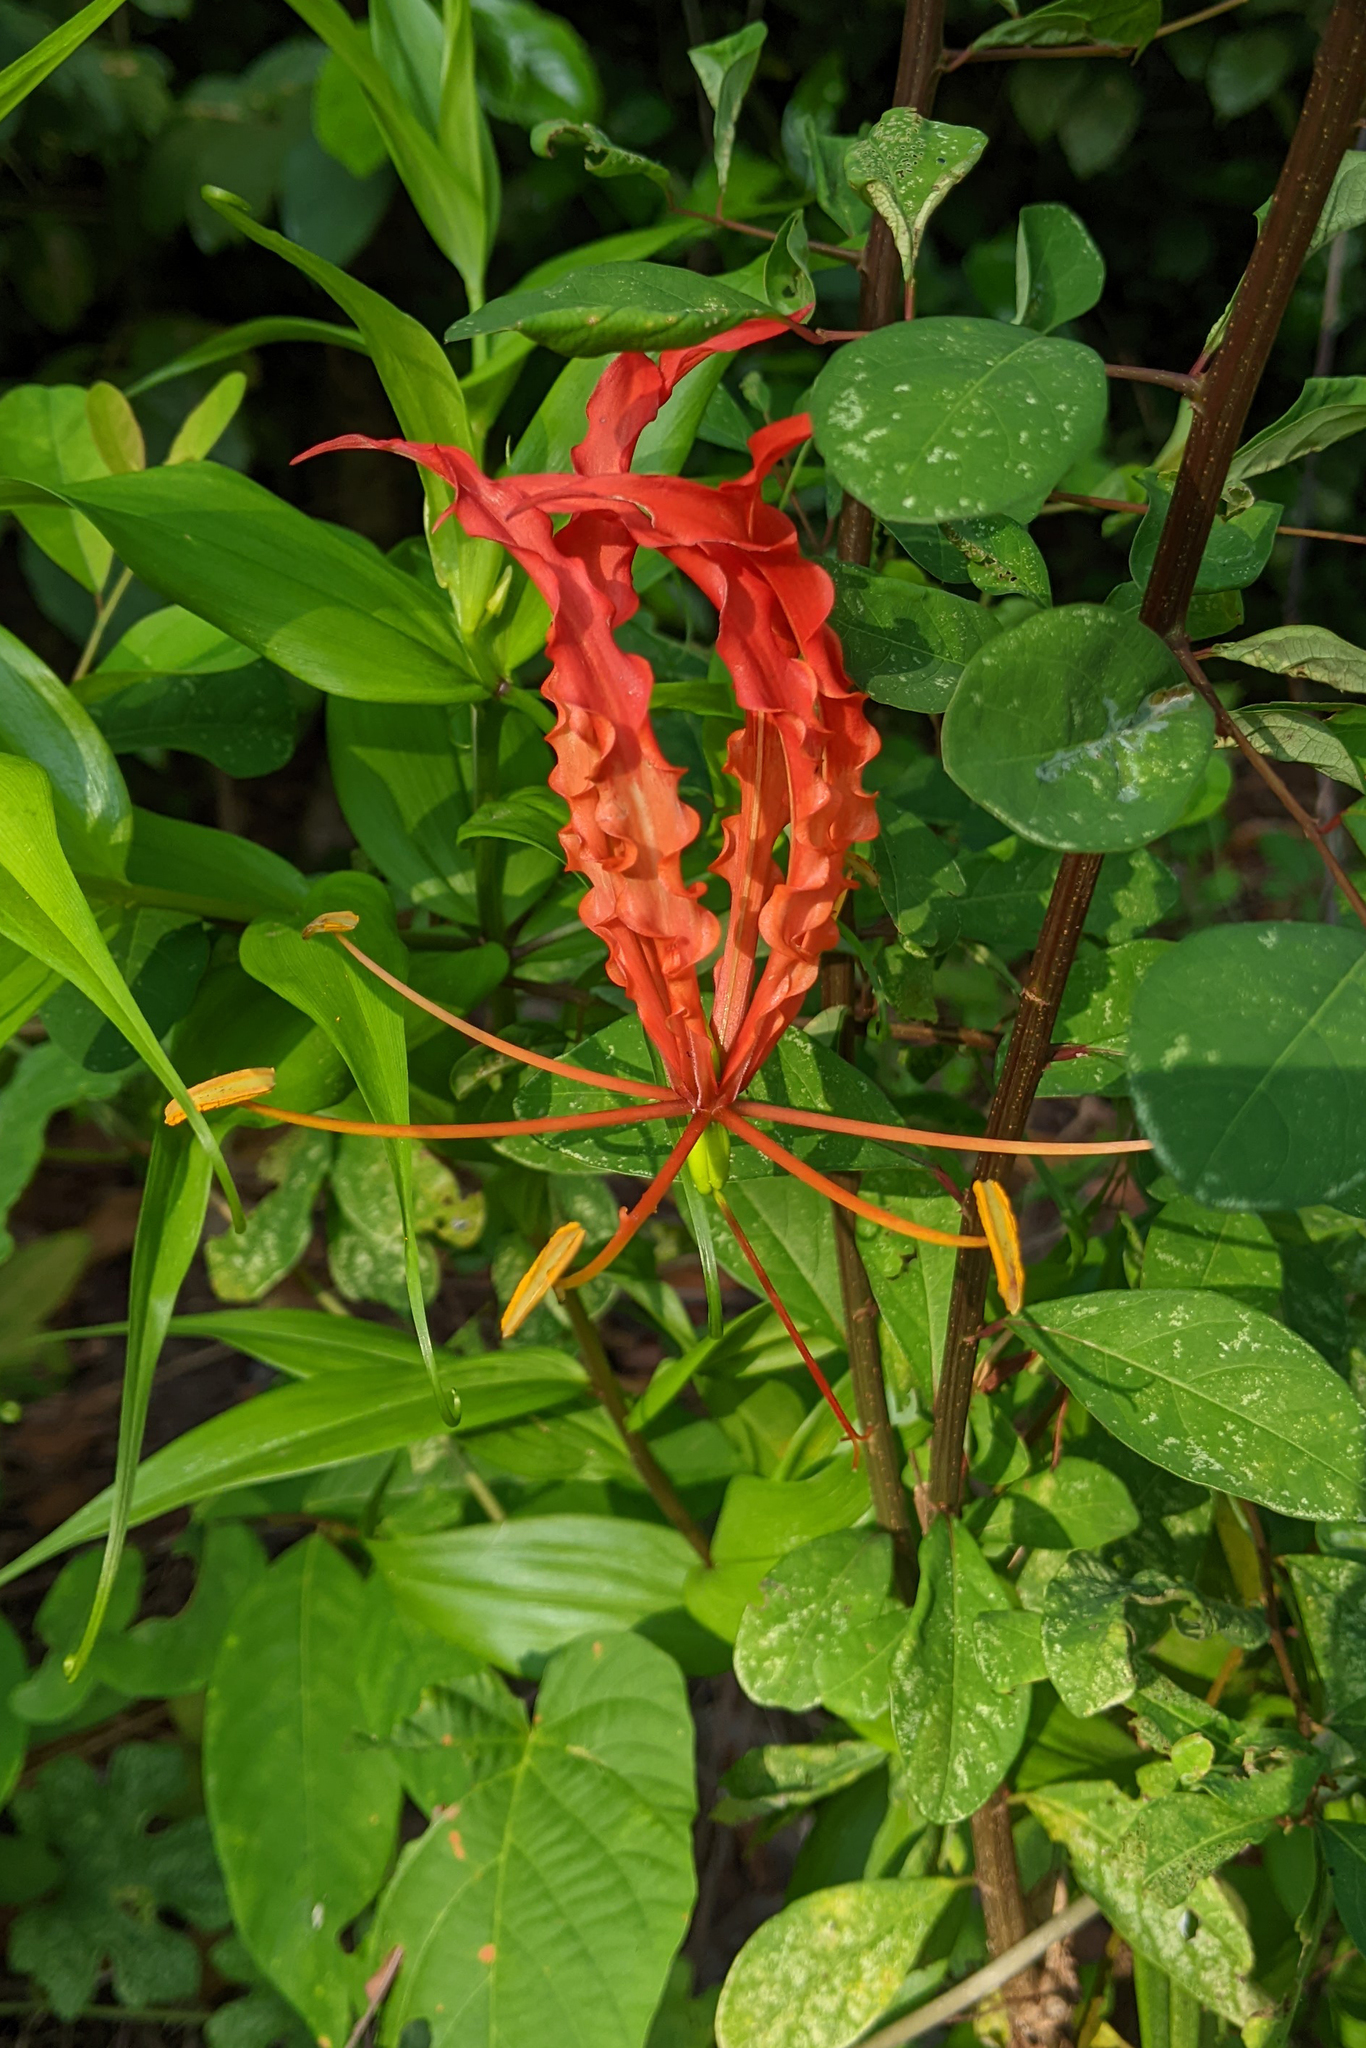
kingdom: Plantae
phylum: Tracheophyta
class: Liliopsida
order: Liliales
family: Colchicaceae
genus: Gloriosa
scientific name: Gloriosa superba
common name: Flame lily
